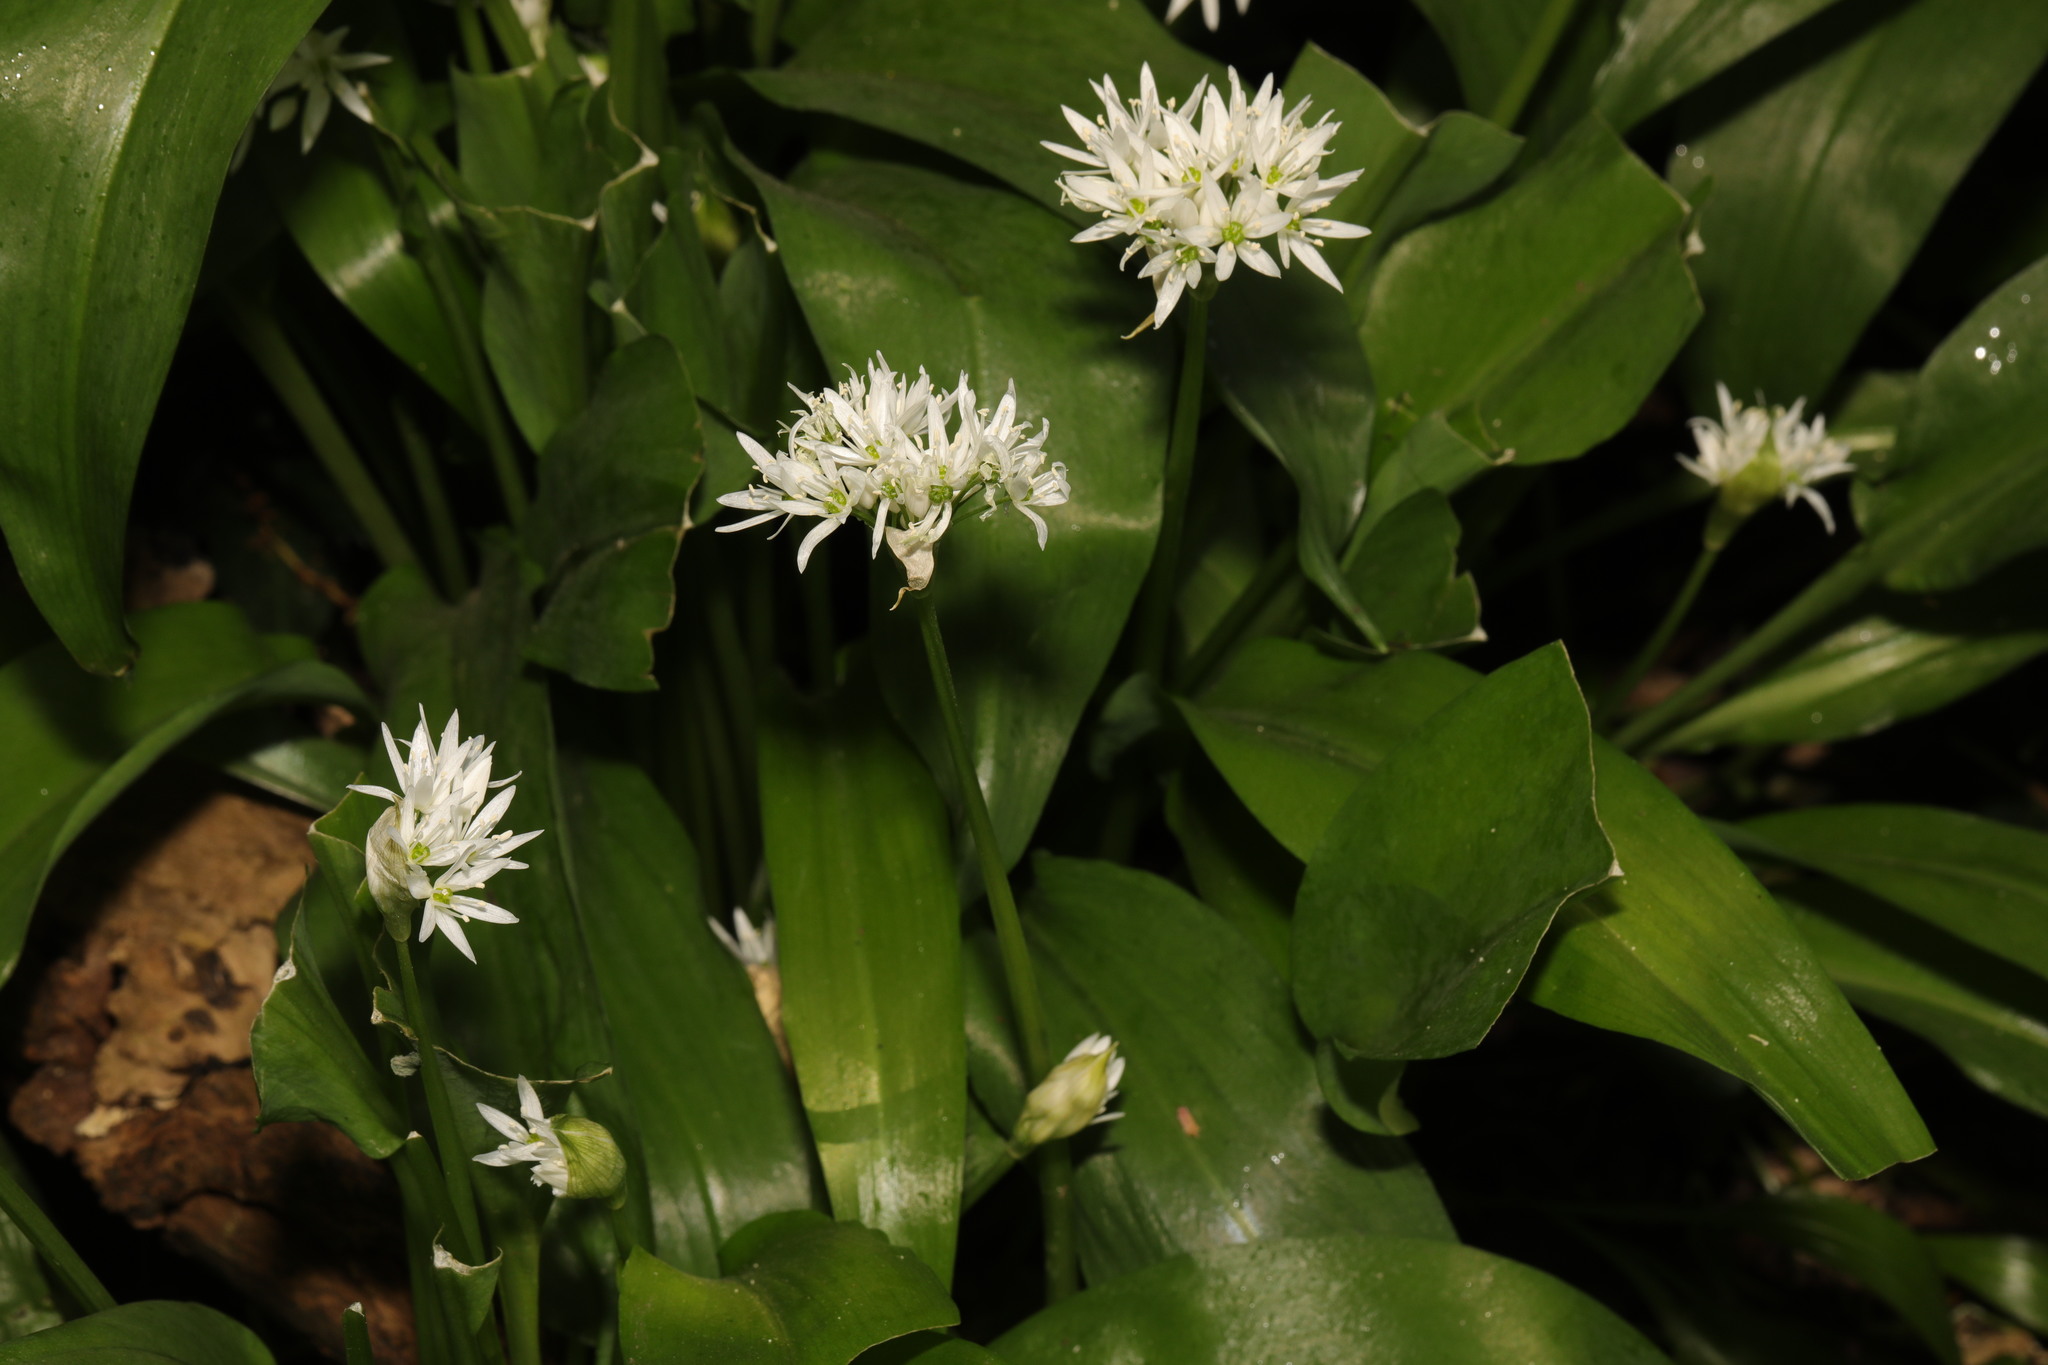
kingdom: Plantae
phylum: Tracheophyta
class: Liliopsida
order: Asparagales
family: Amaryllidaceae
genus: Allium
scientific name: Allium ursinum
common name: Ramsons
